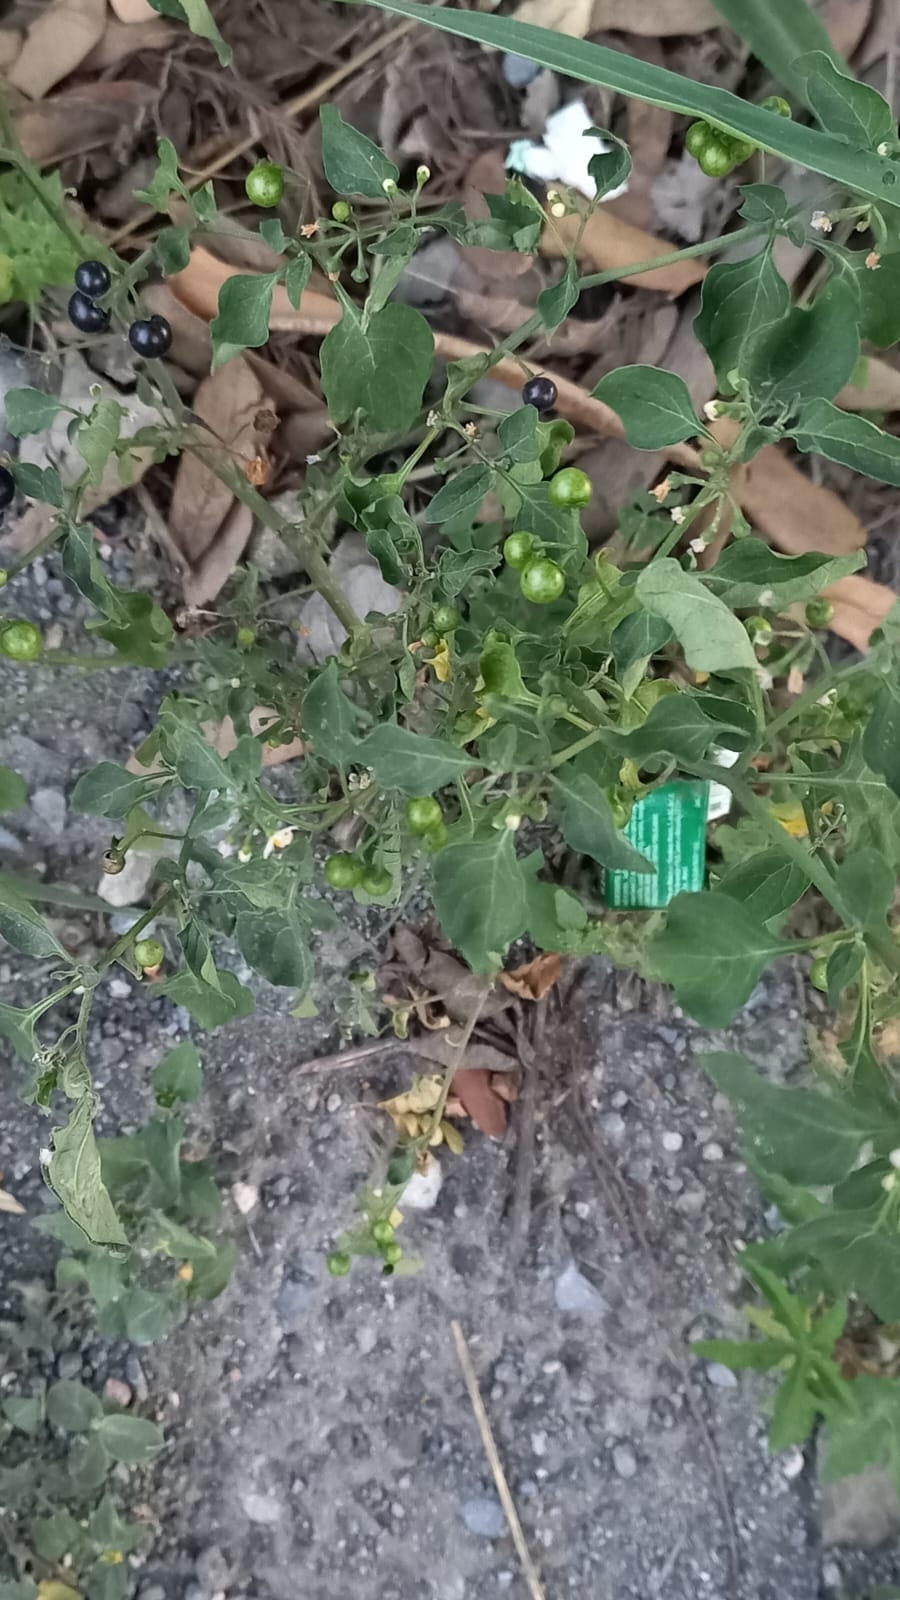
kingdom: Plantae
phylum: Tracheophyta
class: Magnoliopsida
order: Solanales
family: Solanaceae
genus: Solanum
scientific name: Solanum americanum
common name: American black nightshade
